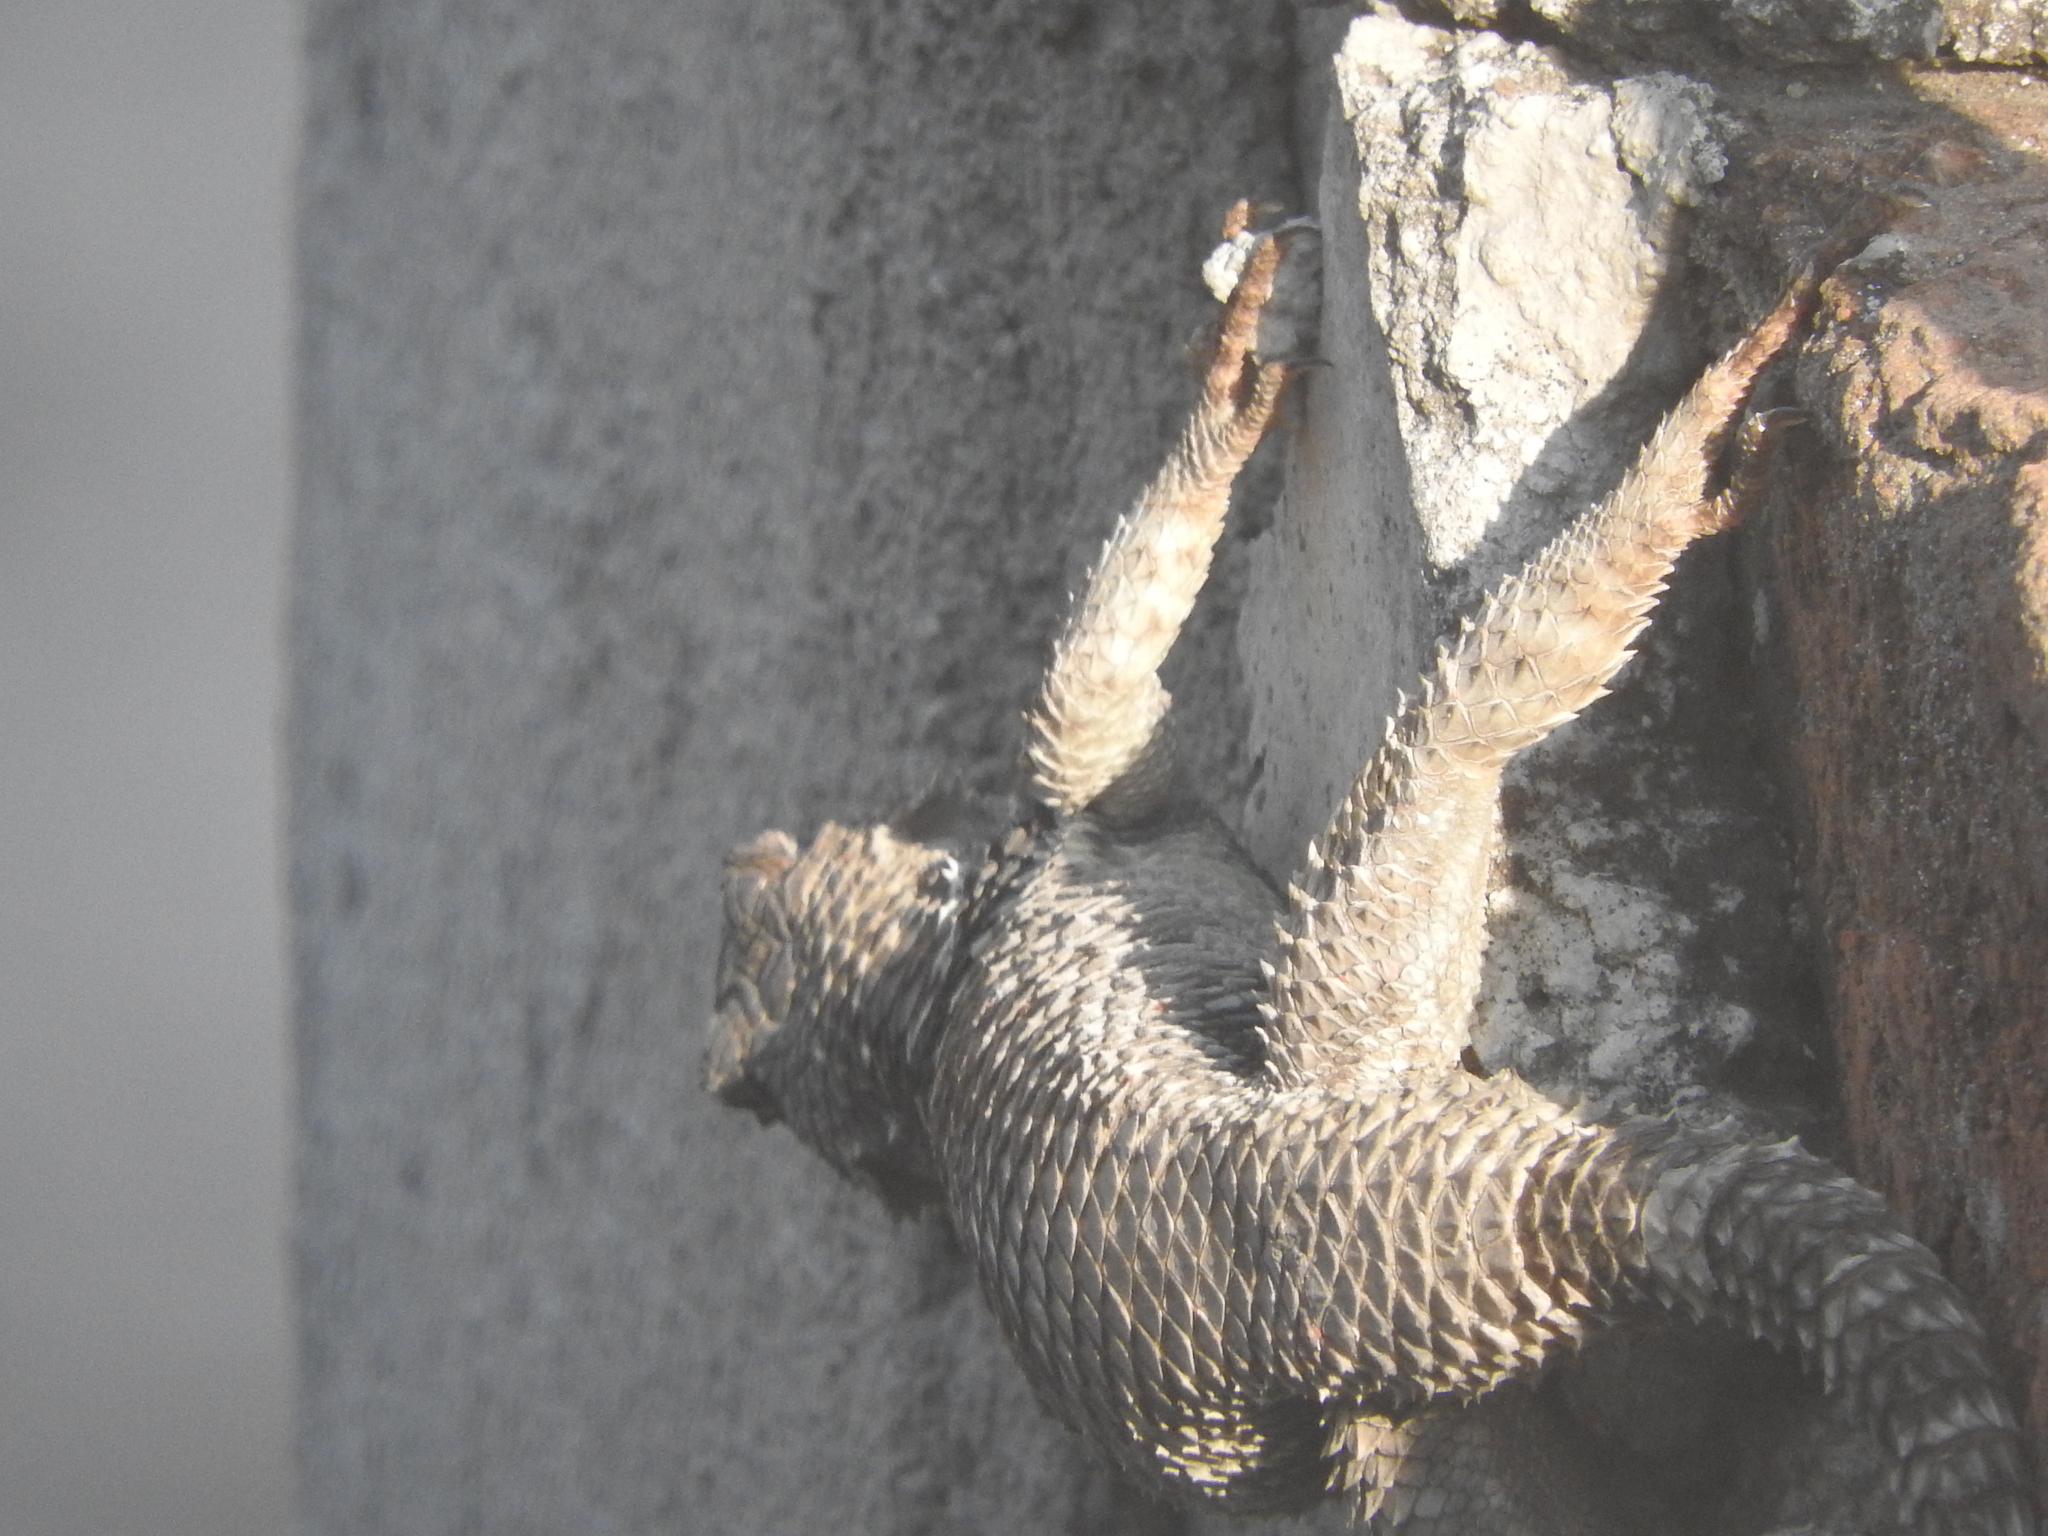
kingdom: Animalia
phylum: Chordata
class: Squamata
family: Phrynosomatidae
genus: Sceloporus
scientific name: Sceloporus torquatus
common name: Central plateau torquate lizard [melanogaster]
